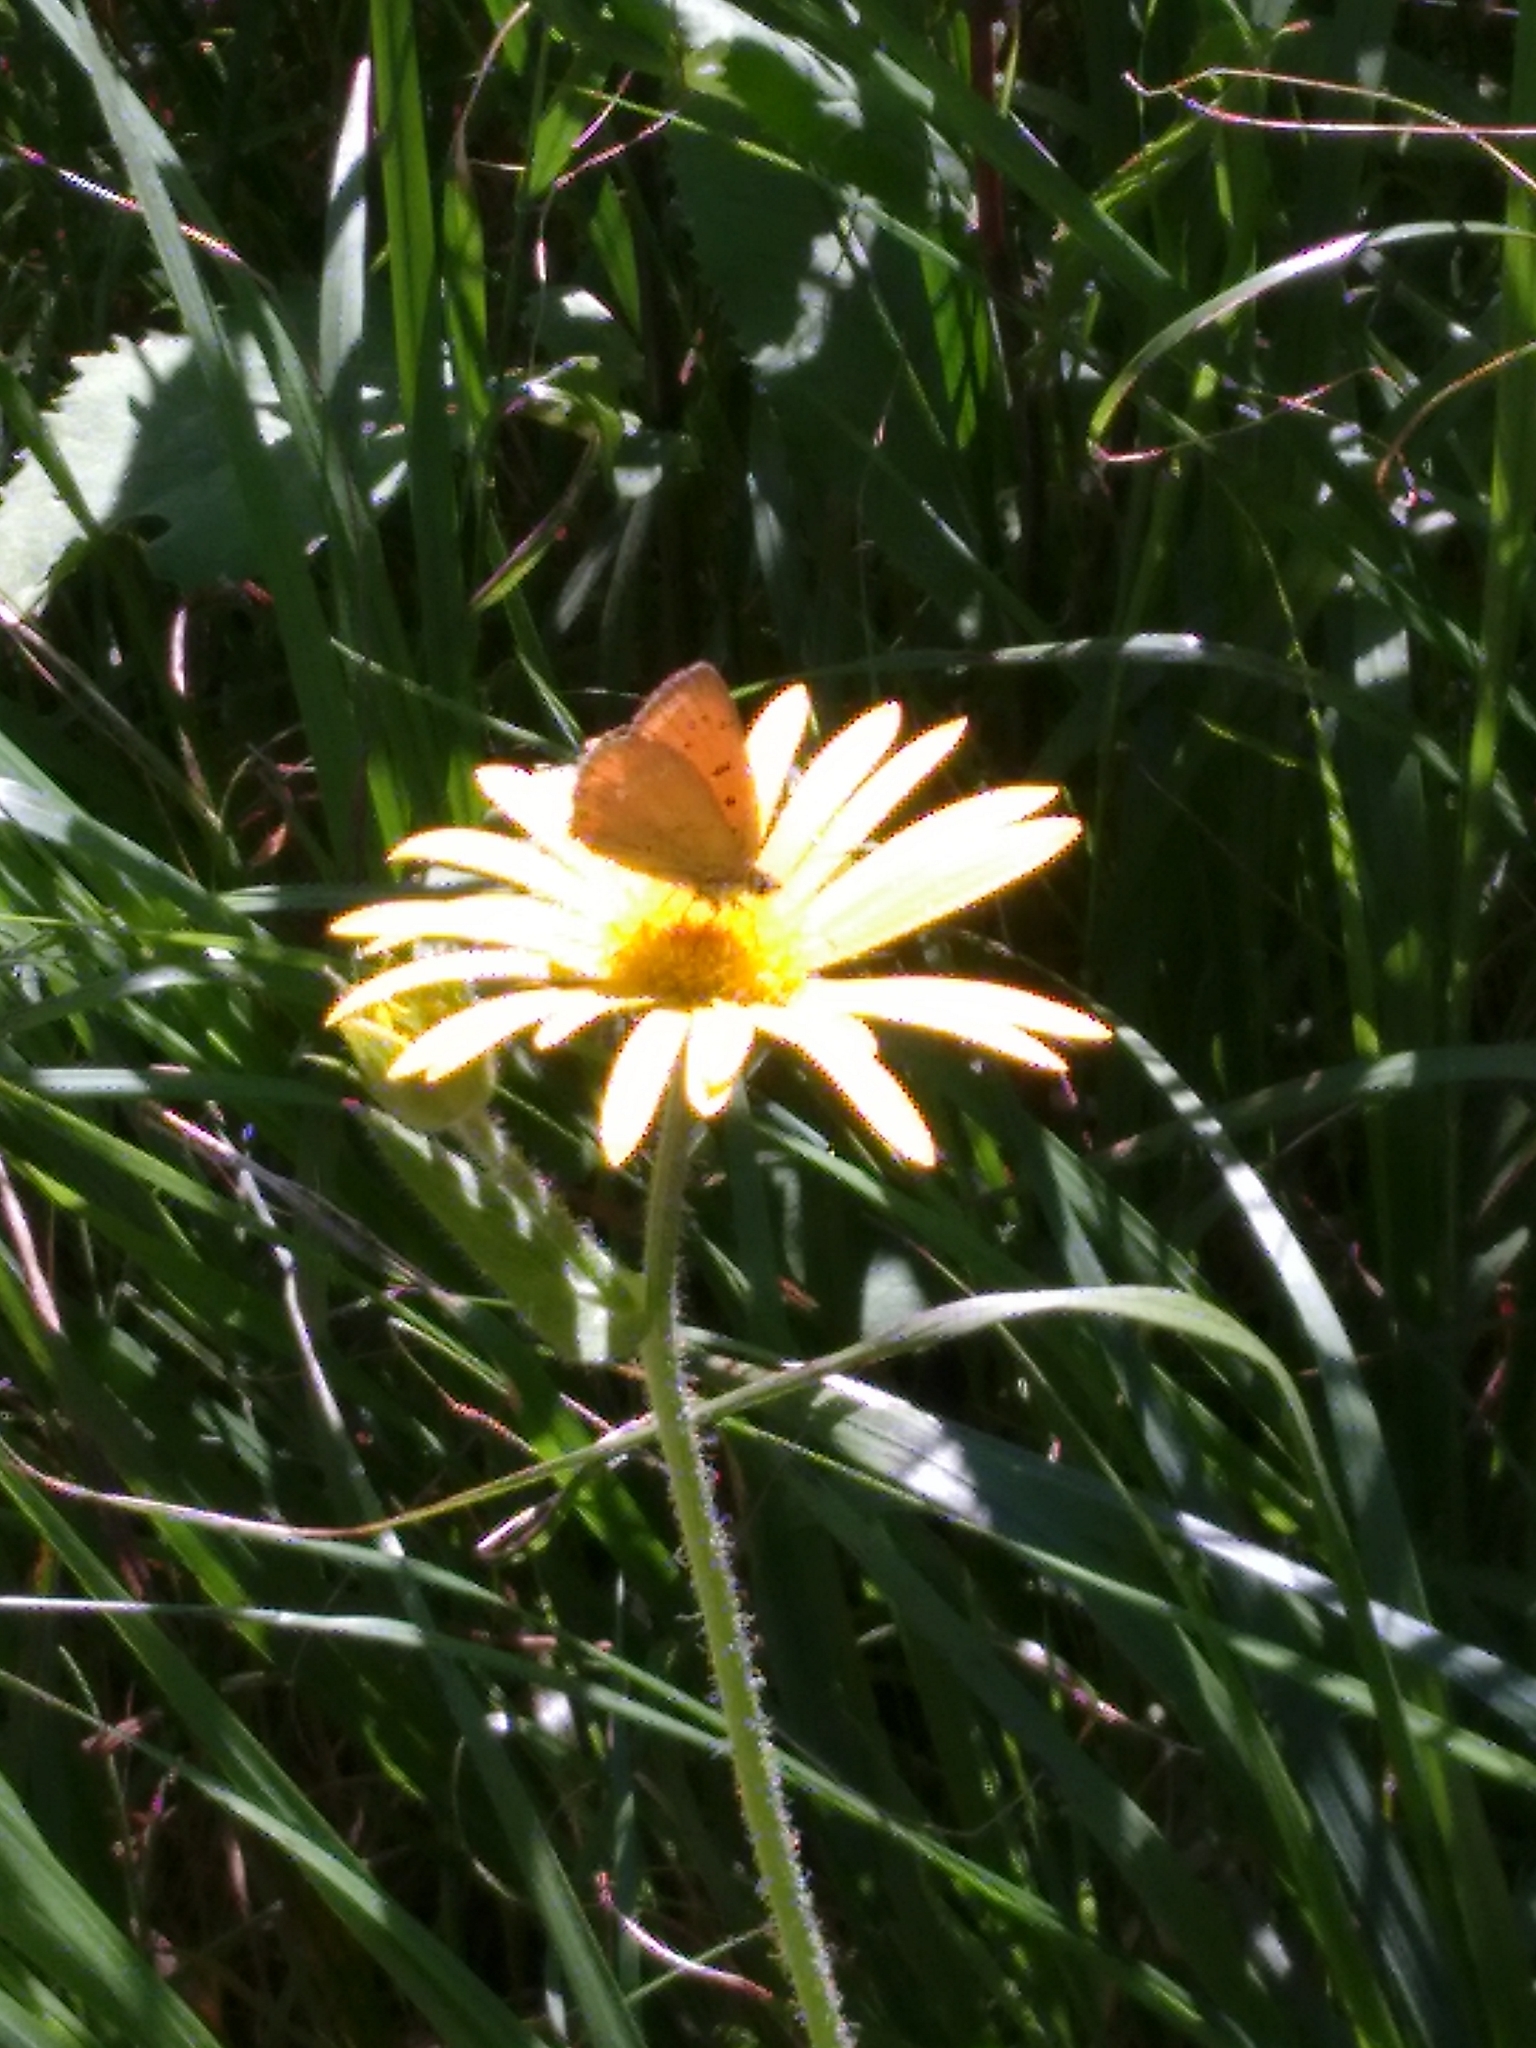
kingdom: Animalia
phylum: Arthropoda
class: Insecta
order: Lepidoptera
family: Lycaenidae
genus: Lycaena
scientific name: Lycaena virgaureae
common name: Scarce copper
